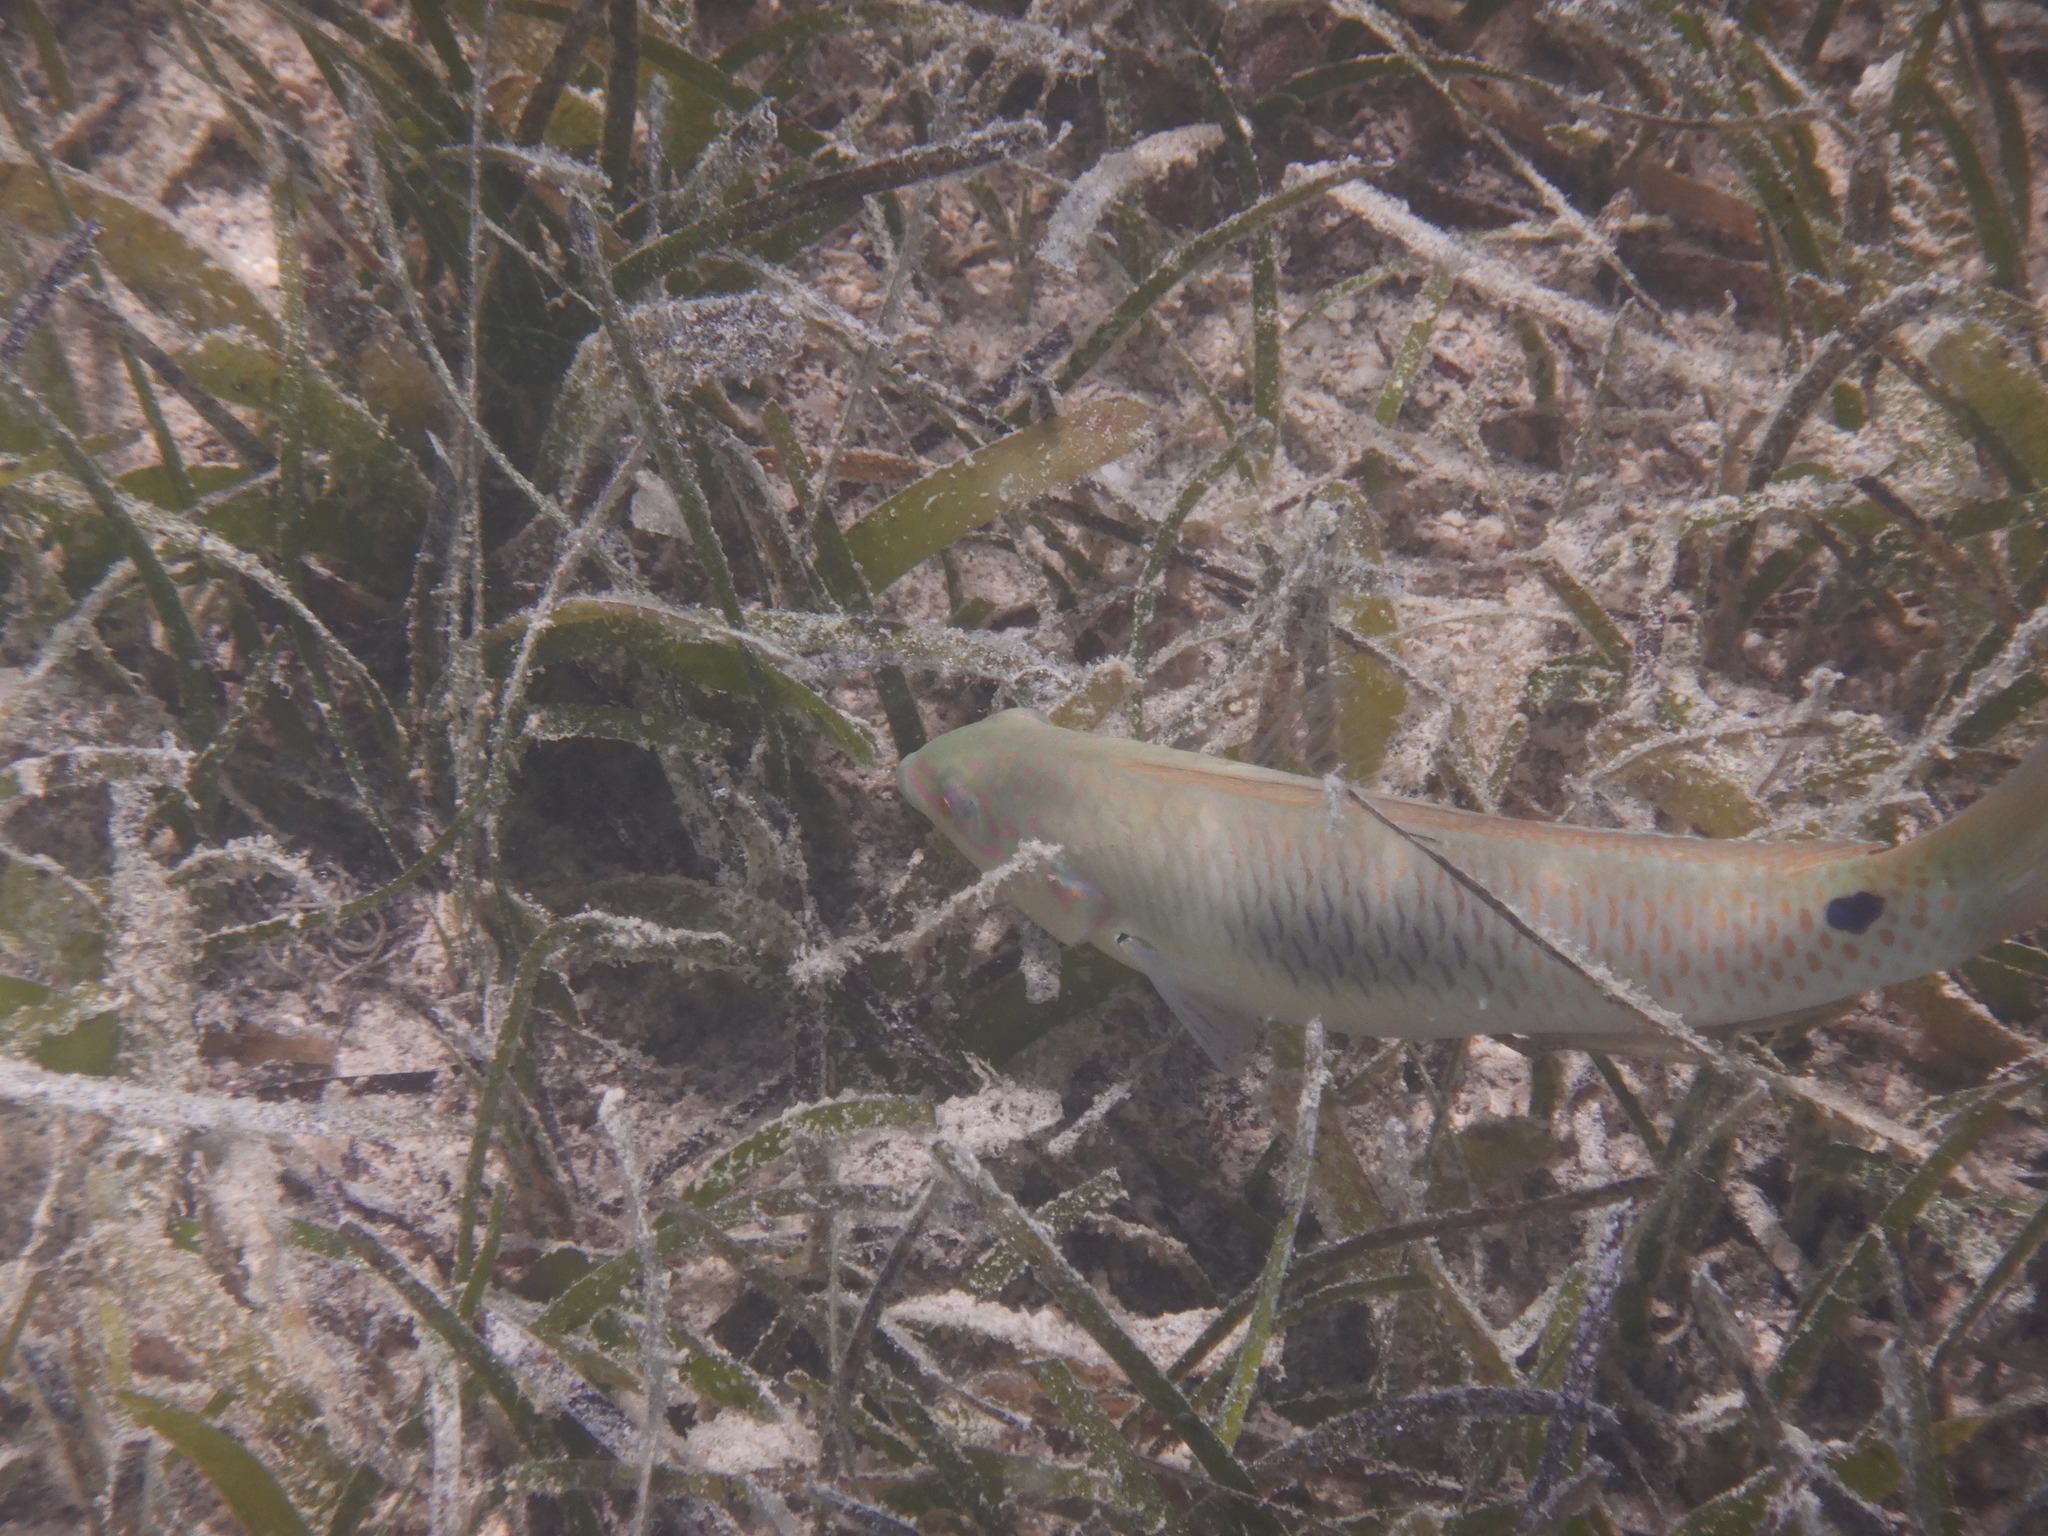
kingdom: Animalia
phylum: Chordata
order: Perciformes
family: Labridae
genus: Halichoeres
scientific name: Halichoeres trimaculatus
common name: Three-spot wrasse
